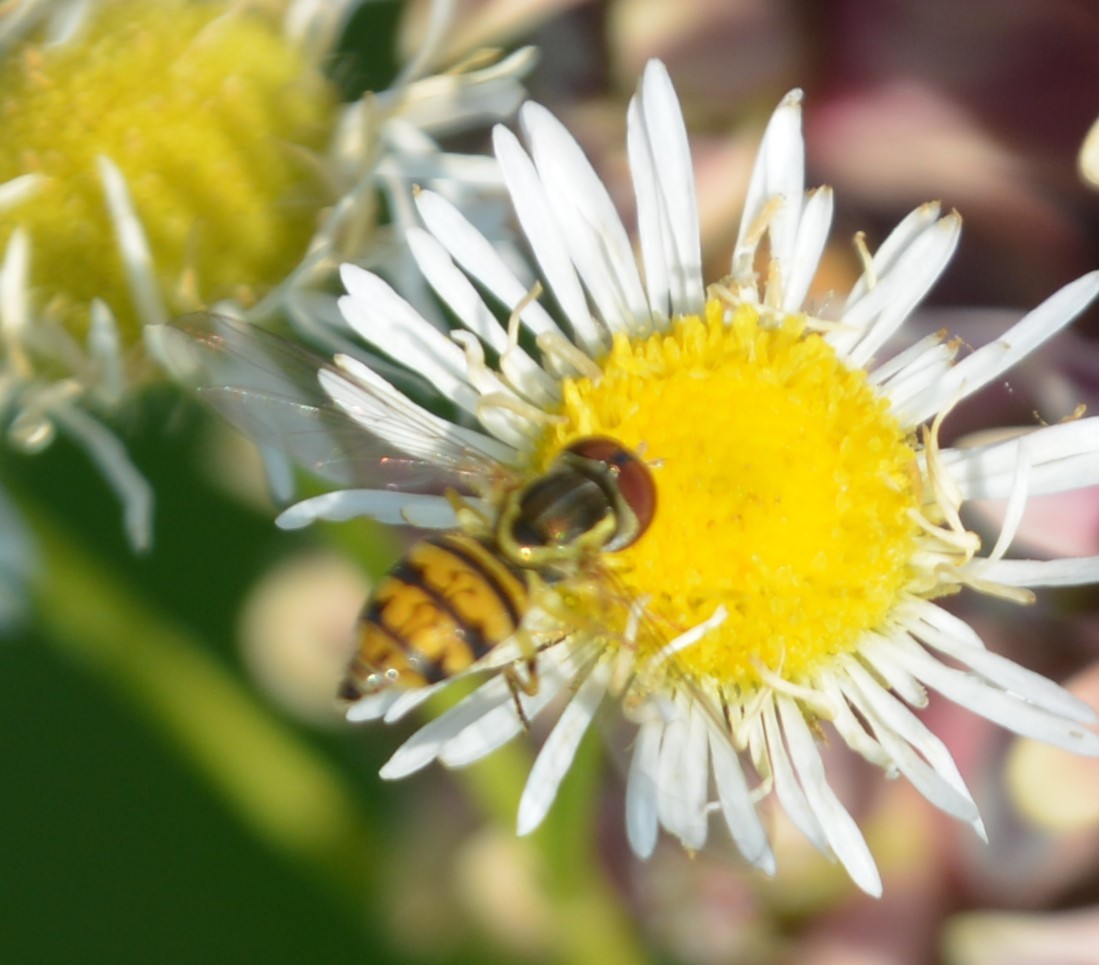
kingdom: Animalia
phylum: Arthropoda
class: Insecta
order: Diptera
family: Syrphidae
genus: Toxomerus
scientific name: Toxomerus geminatus
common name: Eastern calligrapher
